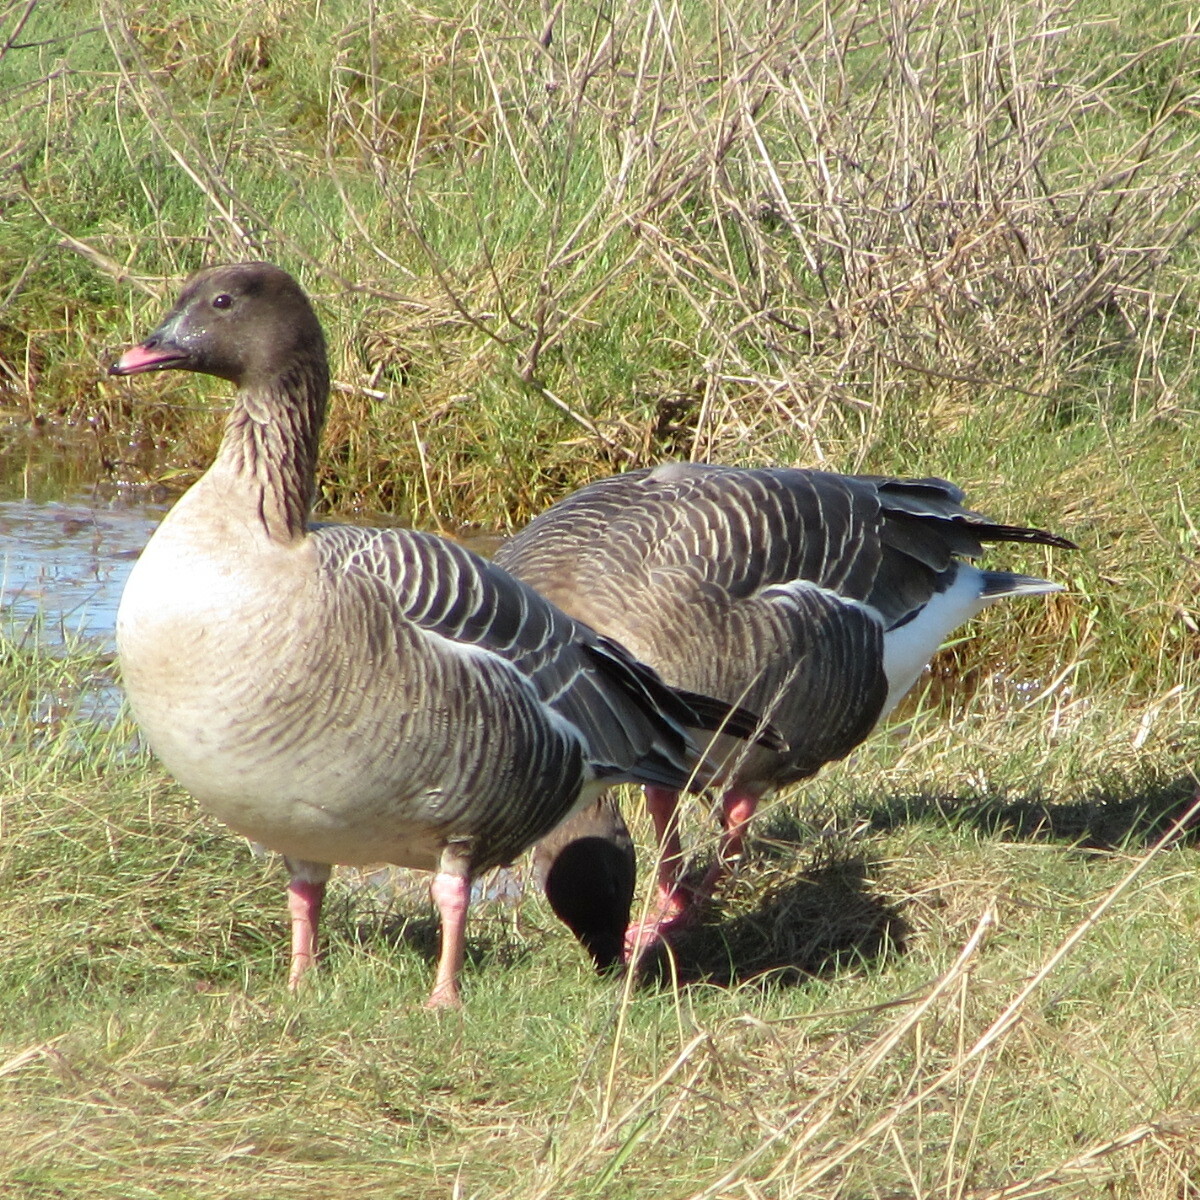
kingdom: Animalia
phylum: Chordata
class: Aves
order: Anseriformes
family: Anatidae
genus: Anser
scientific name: Anser brachyrhynchus
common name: Pink-footed goose
